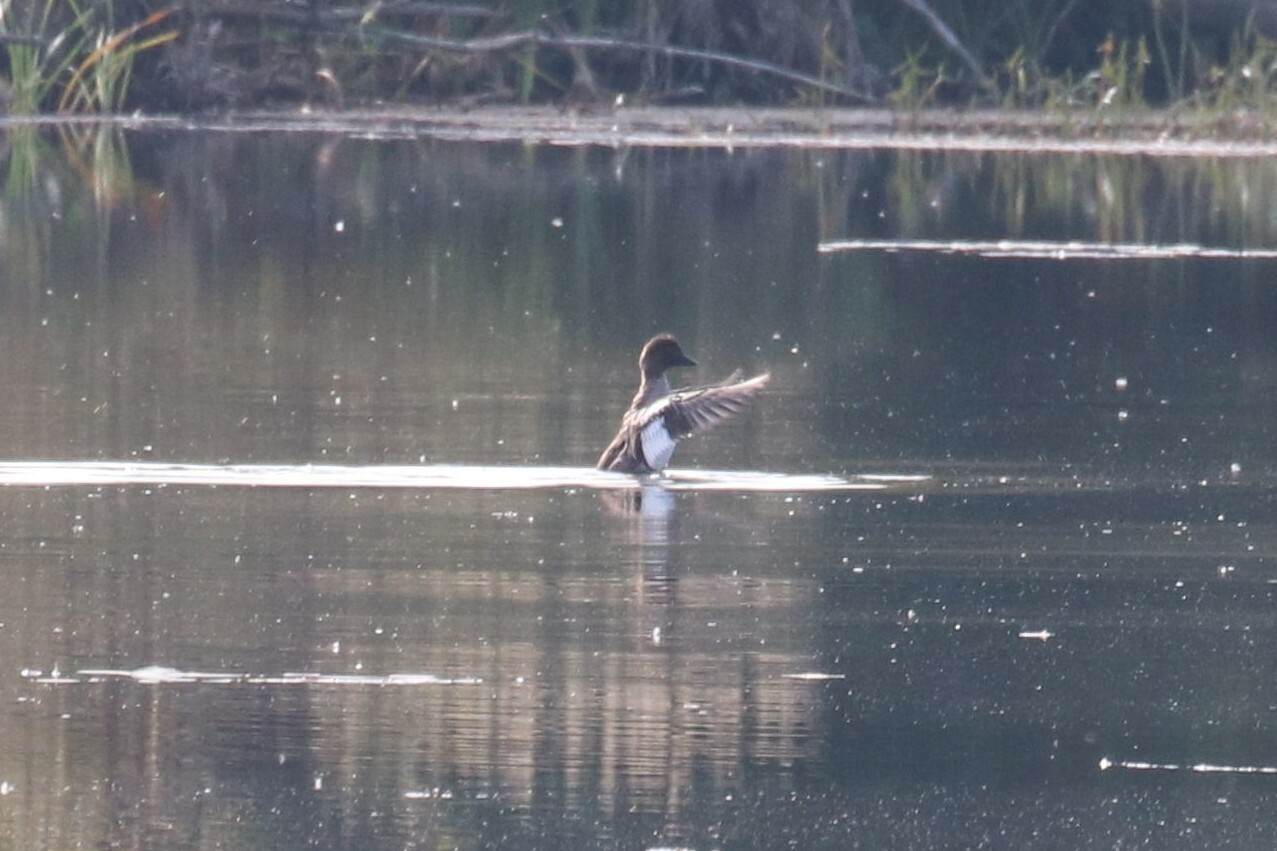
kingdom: Animalia
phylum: Chordata
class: Aves
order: Anseriformes
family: Anatidae
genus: Bucephala
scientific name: Bucephala clangula
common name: Common goldeneye
